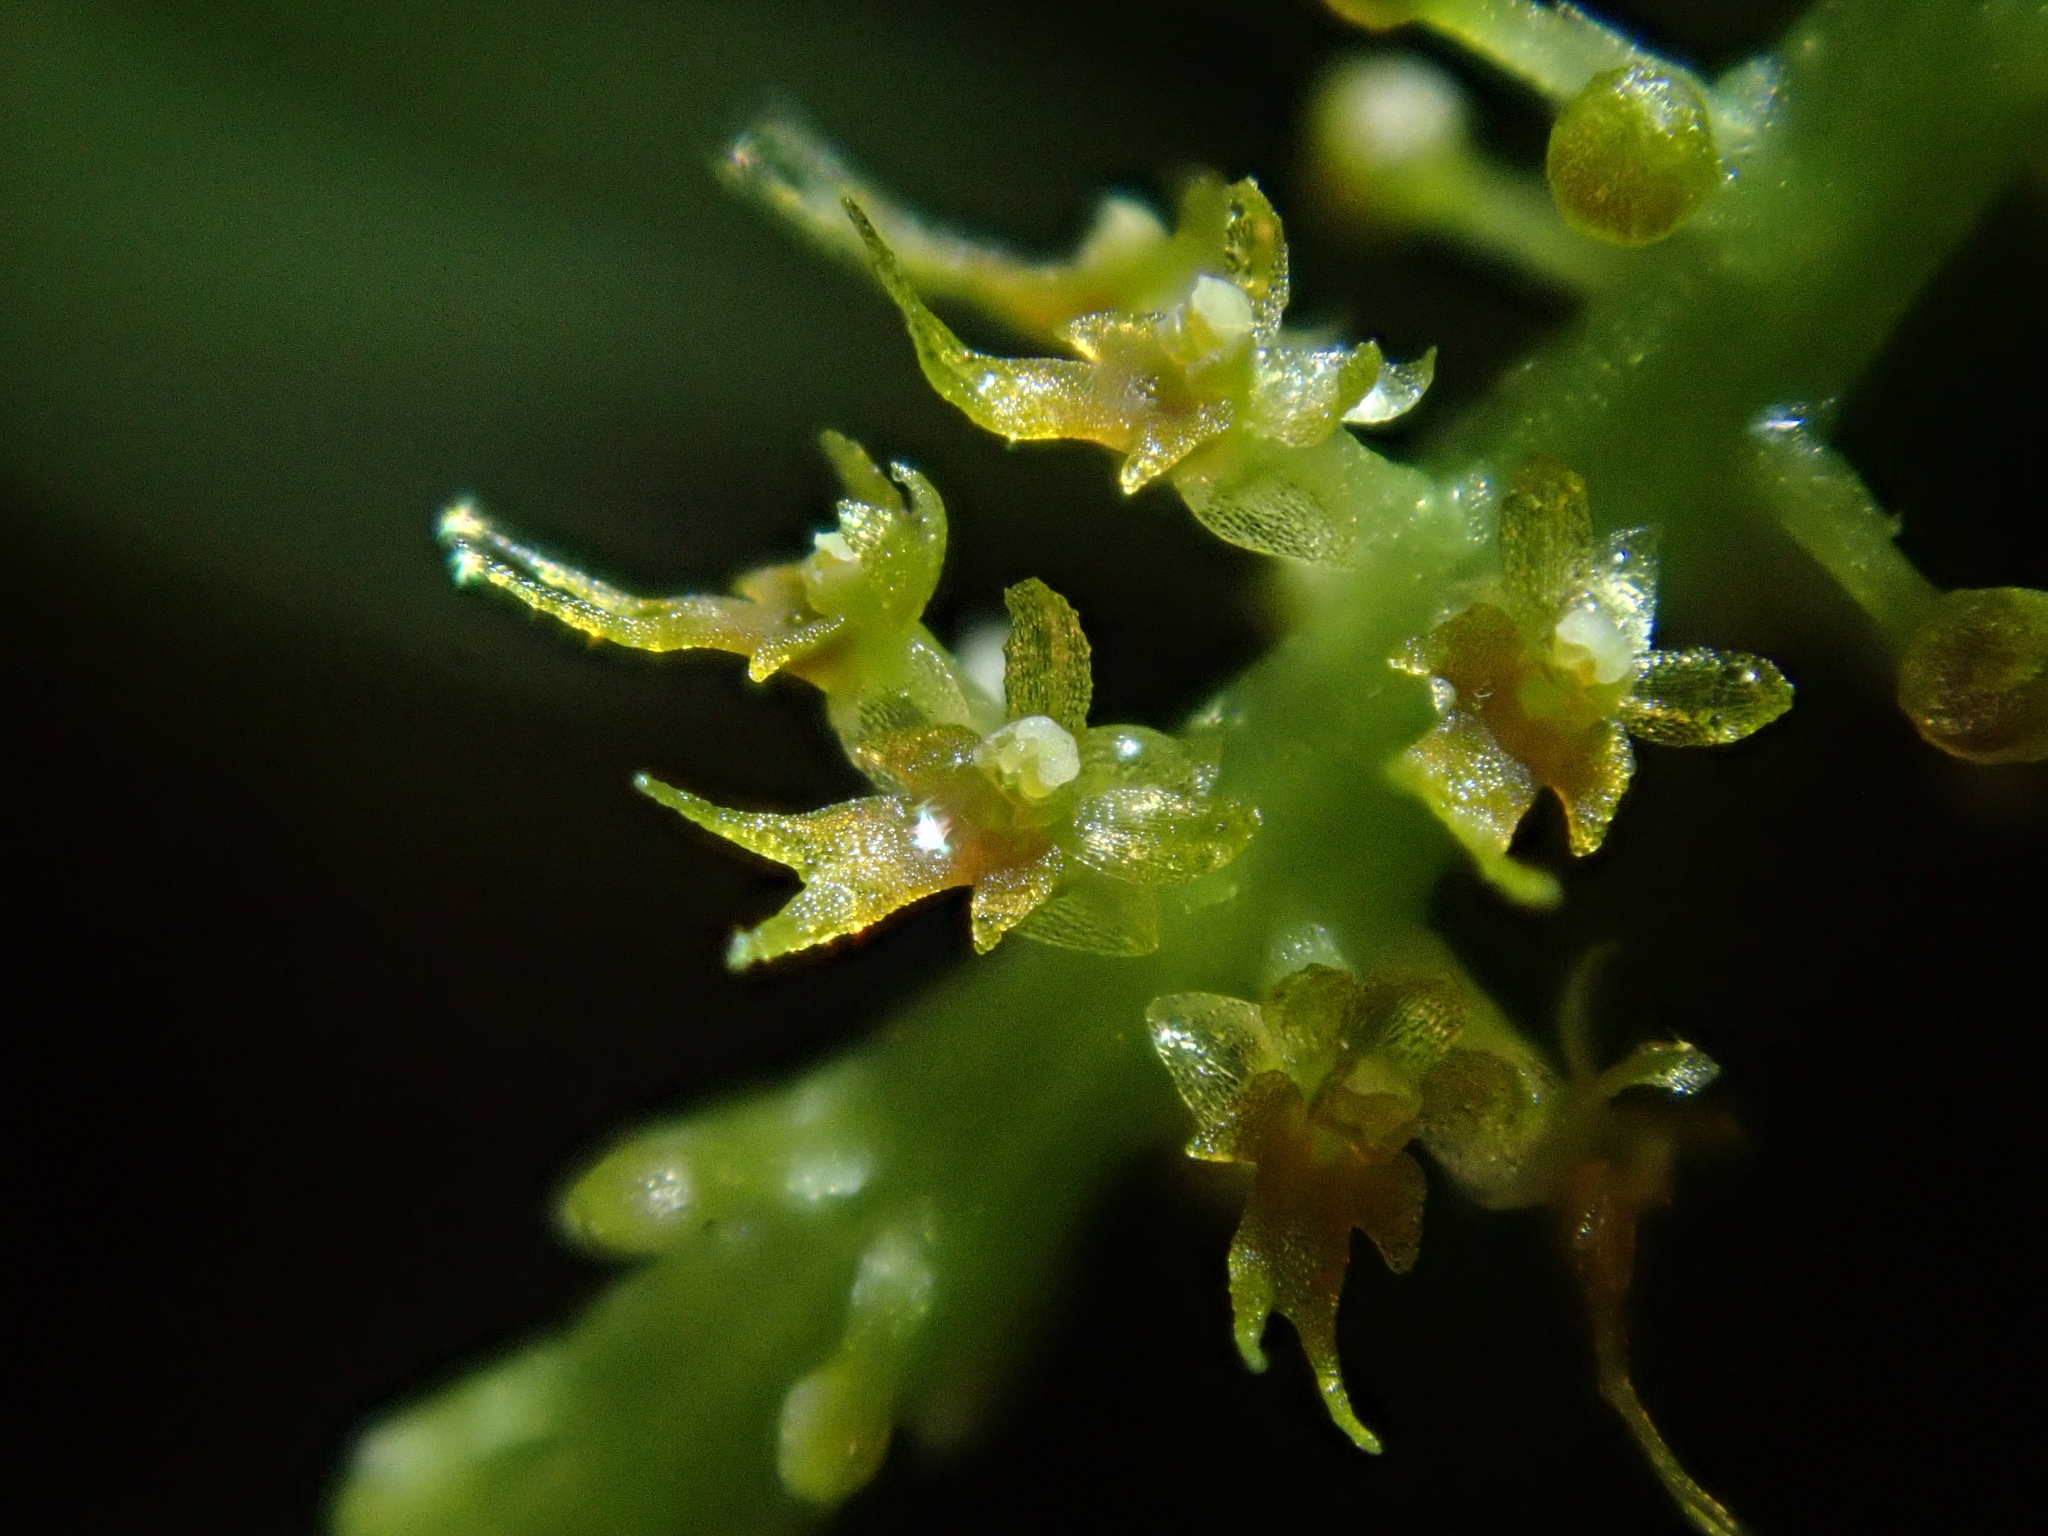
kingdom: Plantae
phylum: Tracheophyta
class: Liliopsida
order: Asparagales
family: Orchidaceae
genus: Oberonia
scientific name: Oberonia falcata
